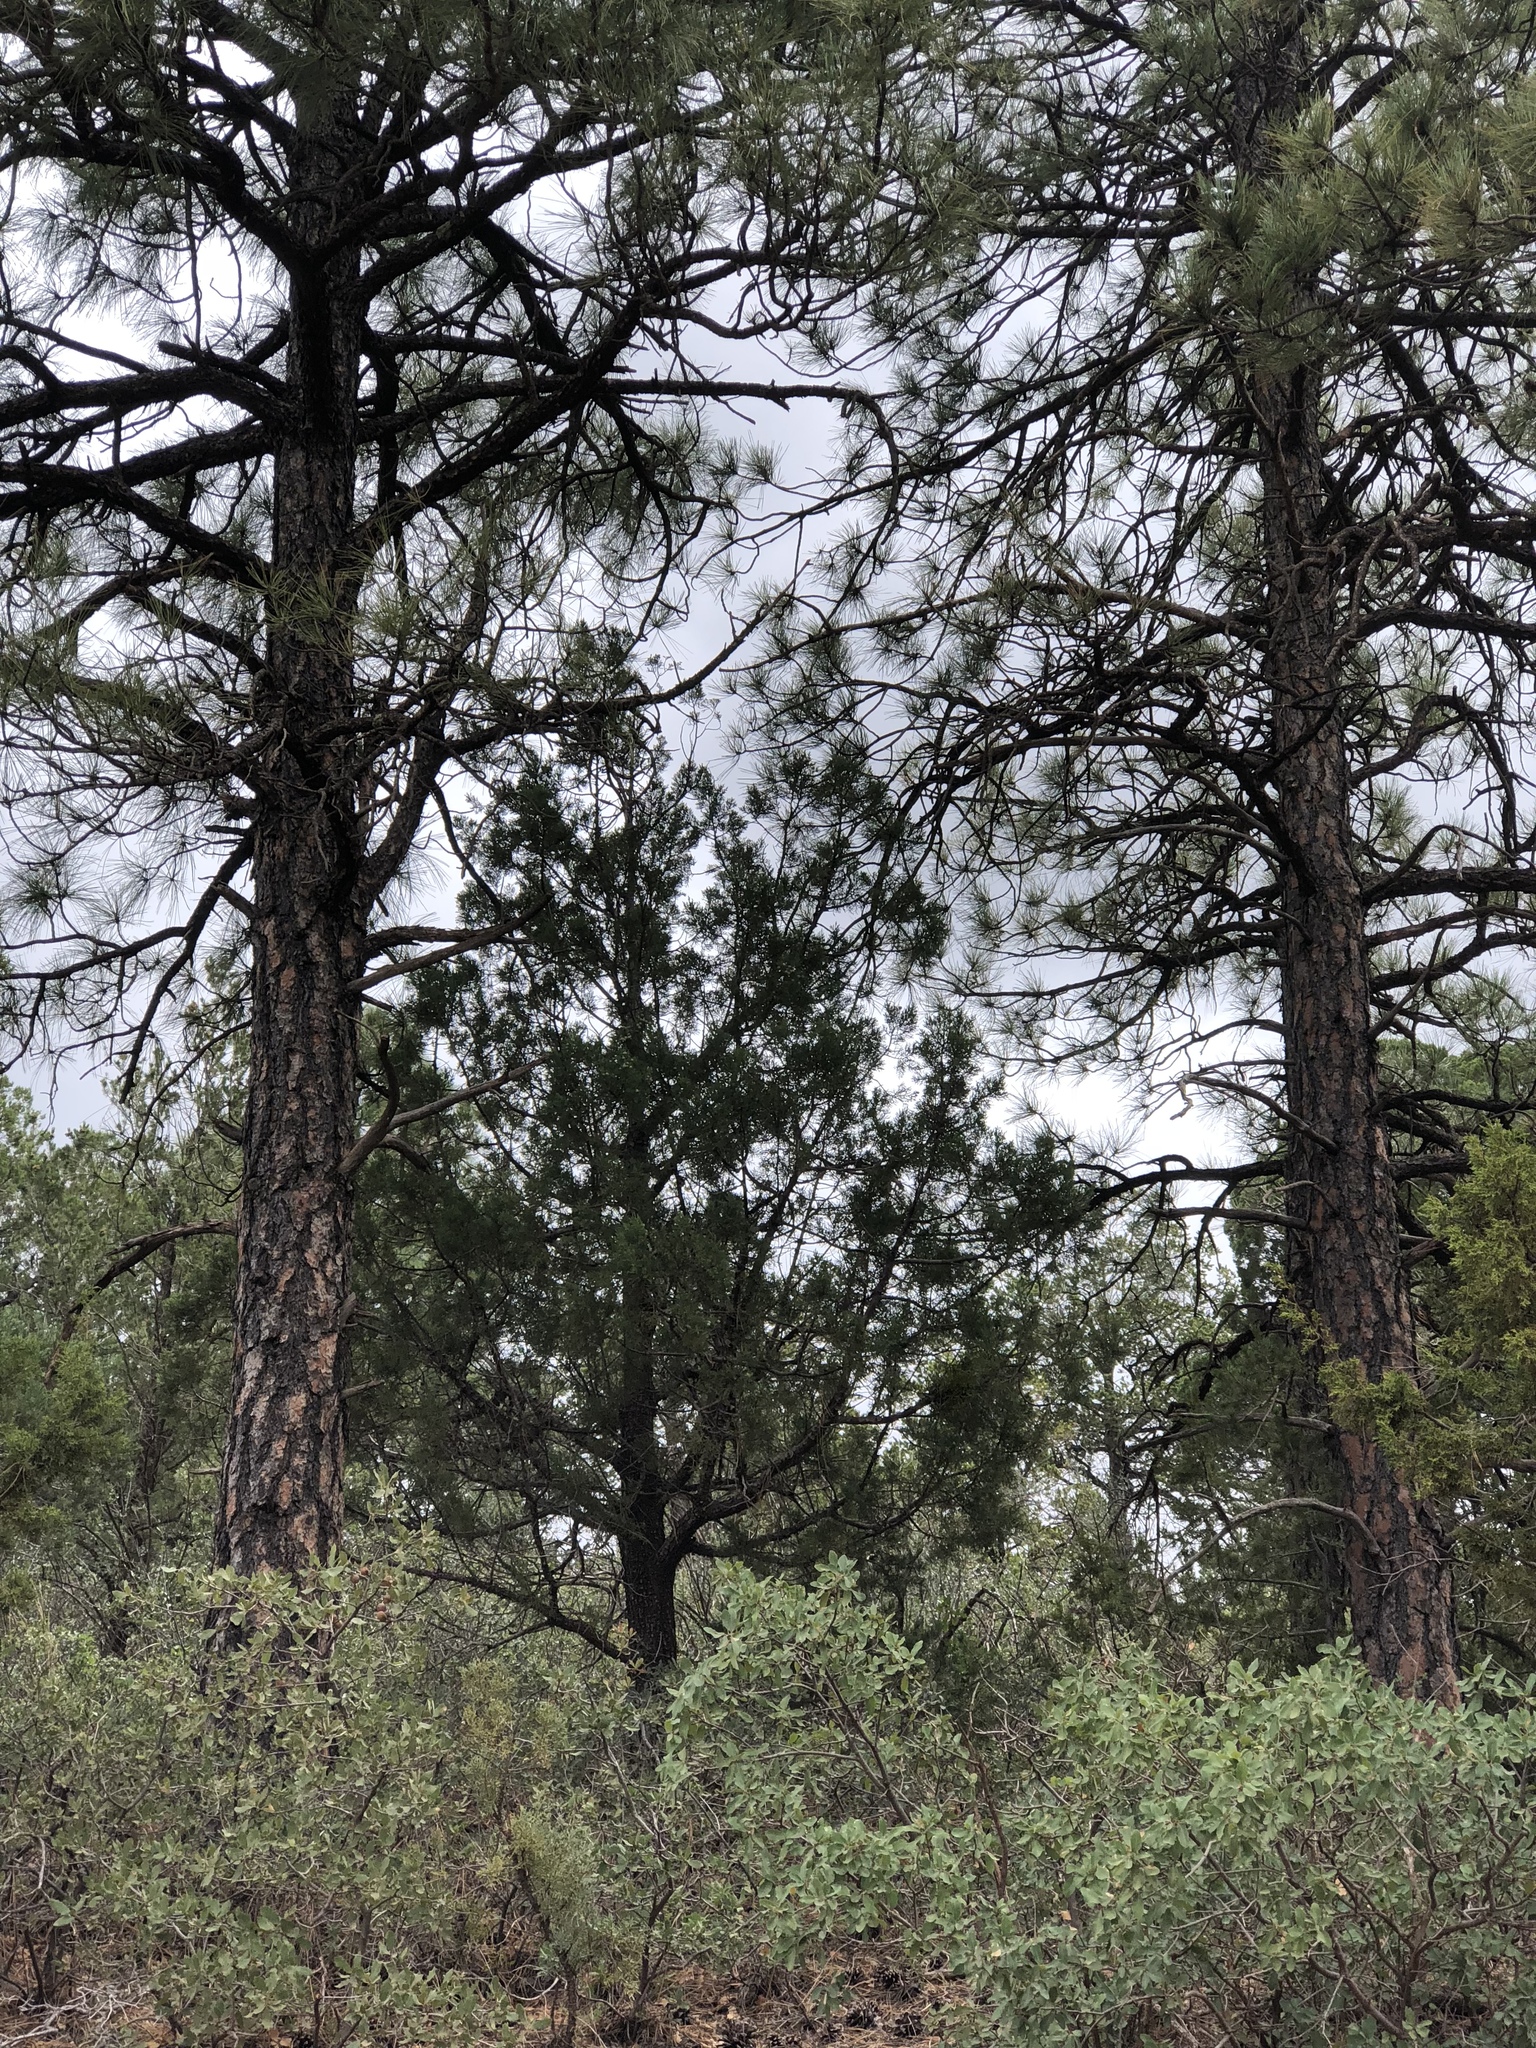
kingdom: Plantae
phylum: Tracheophyta
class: Pinopsida
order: Pinales
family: Pinaceae
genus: Pinus
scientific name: Pinus ponderosa
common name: Western yellow-pine
